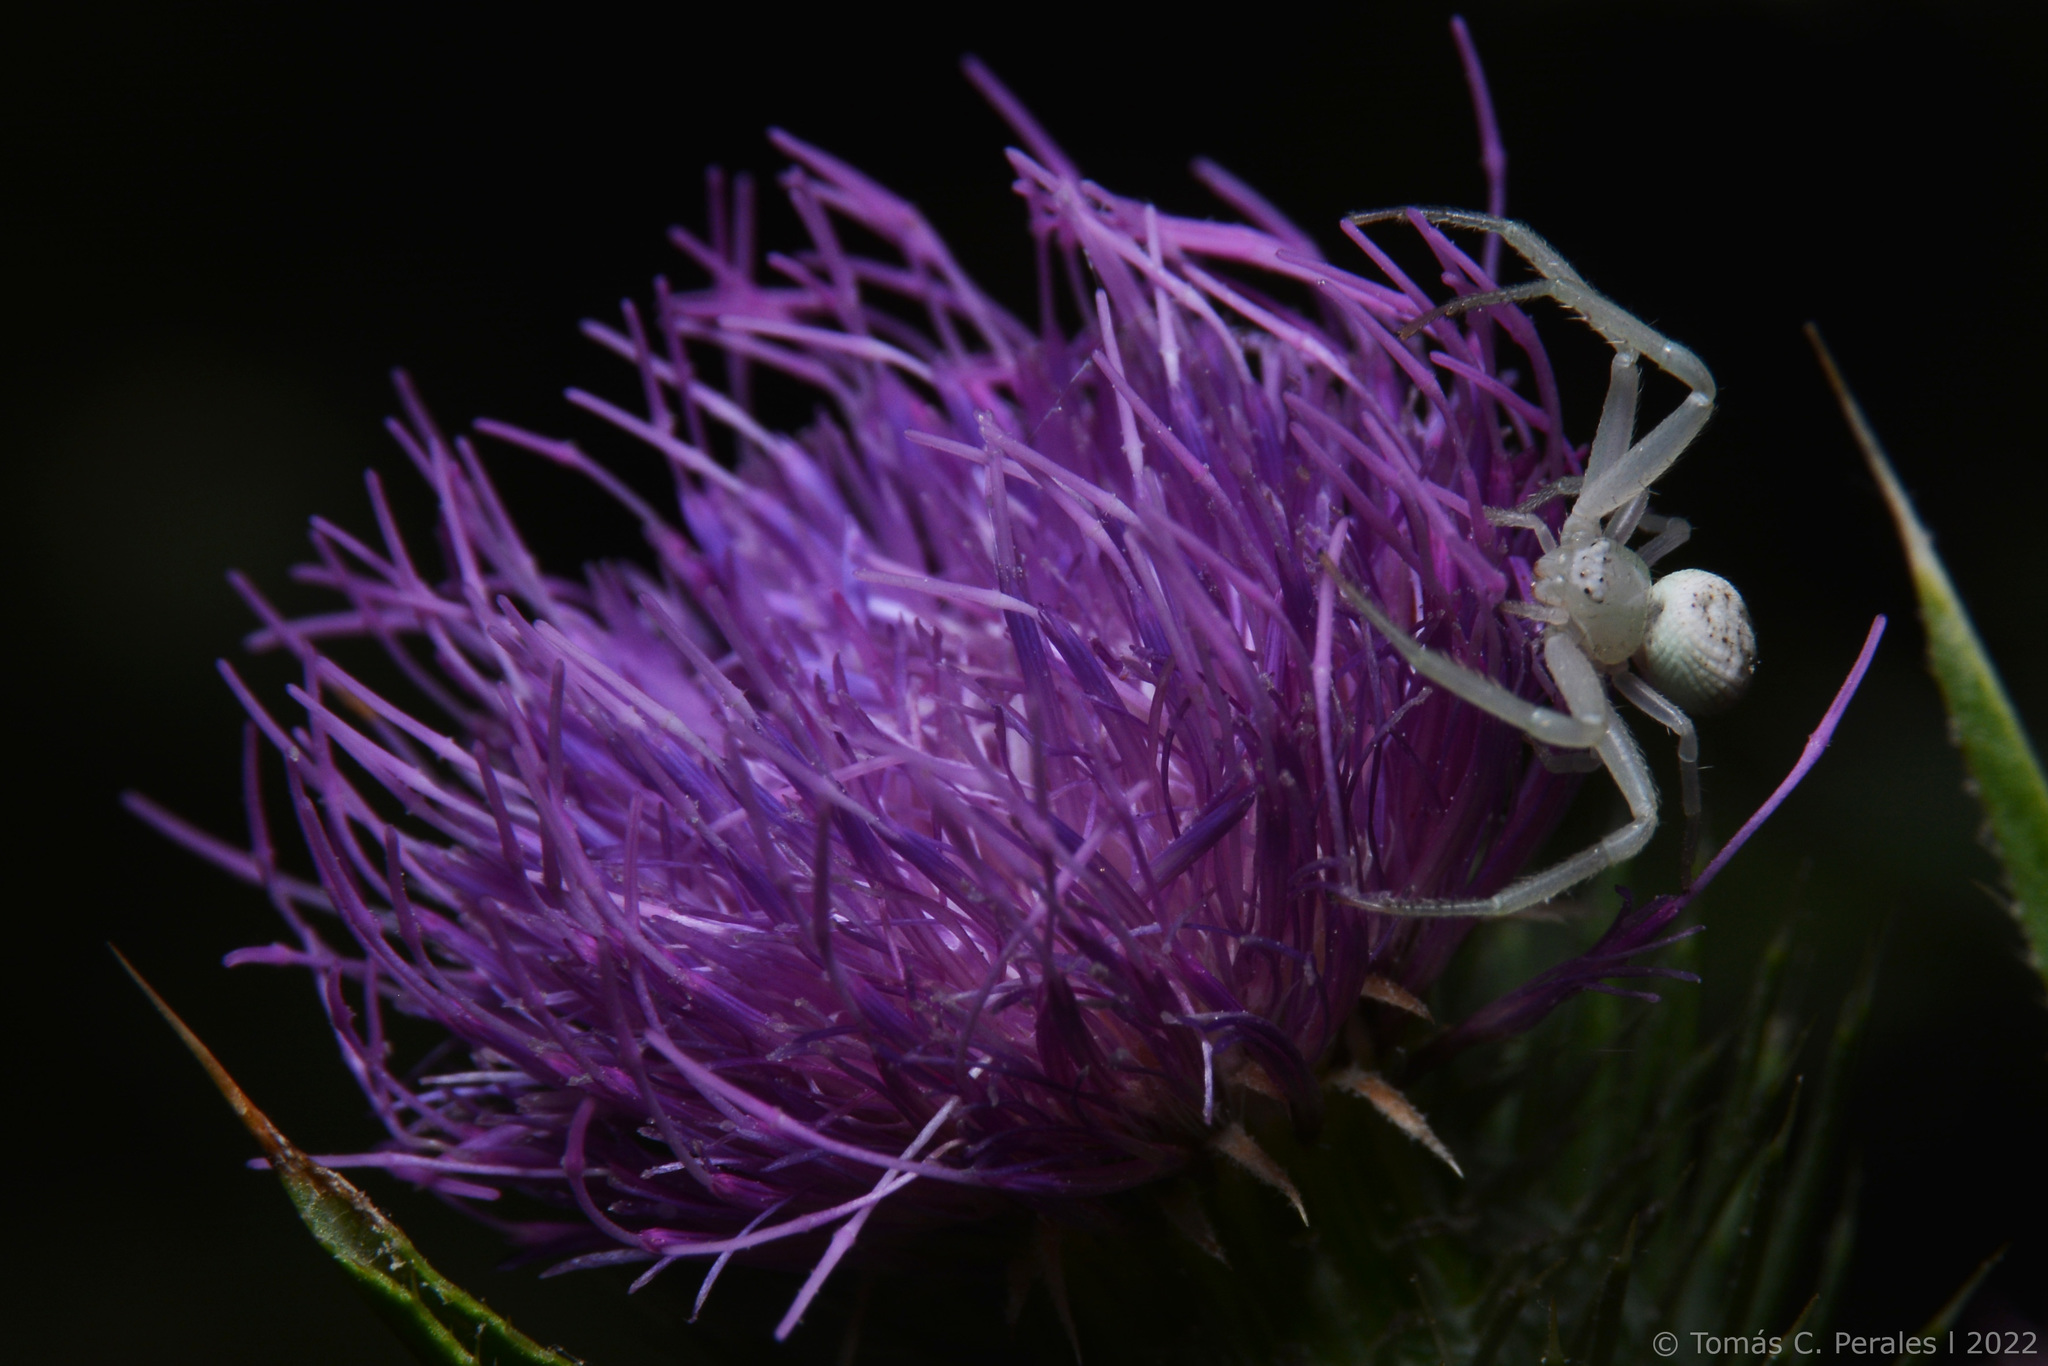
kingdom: Animalia
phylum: Arthropoda
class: Arachnida
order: Araneae
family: Thomisidae
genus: Misumenops
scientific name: Misumenops
